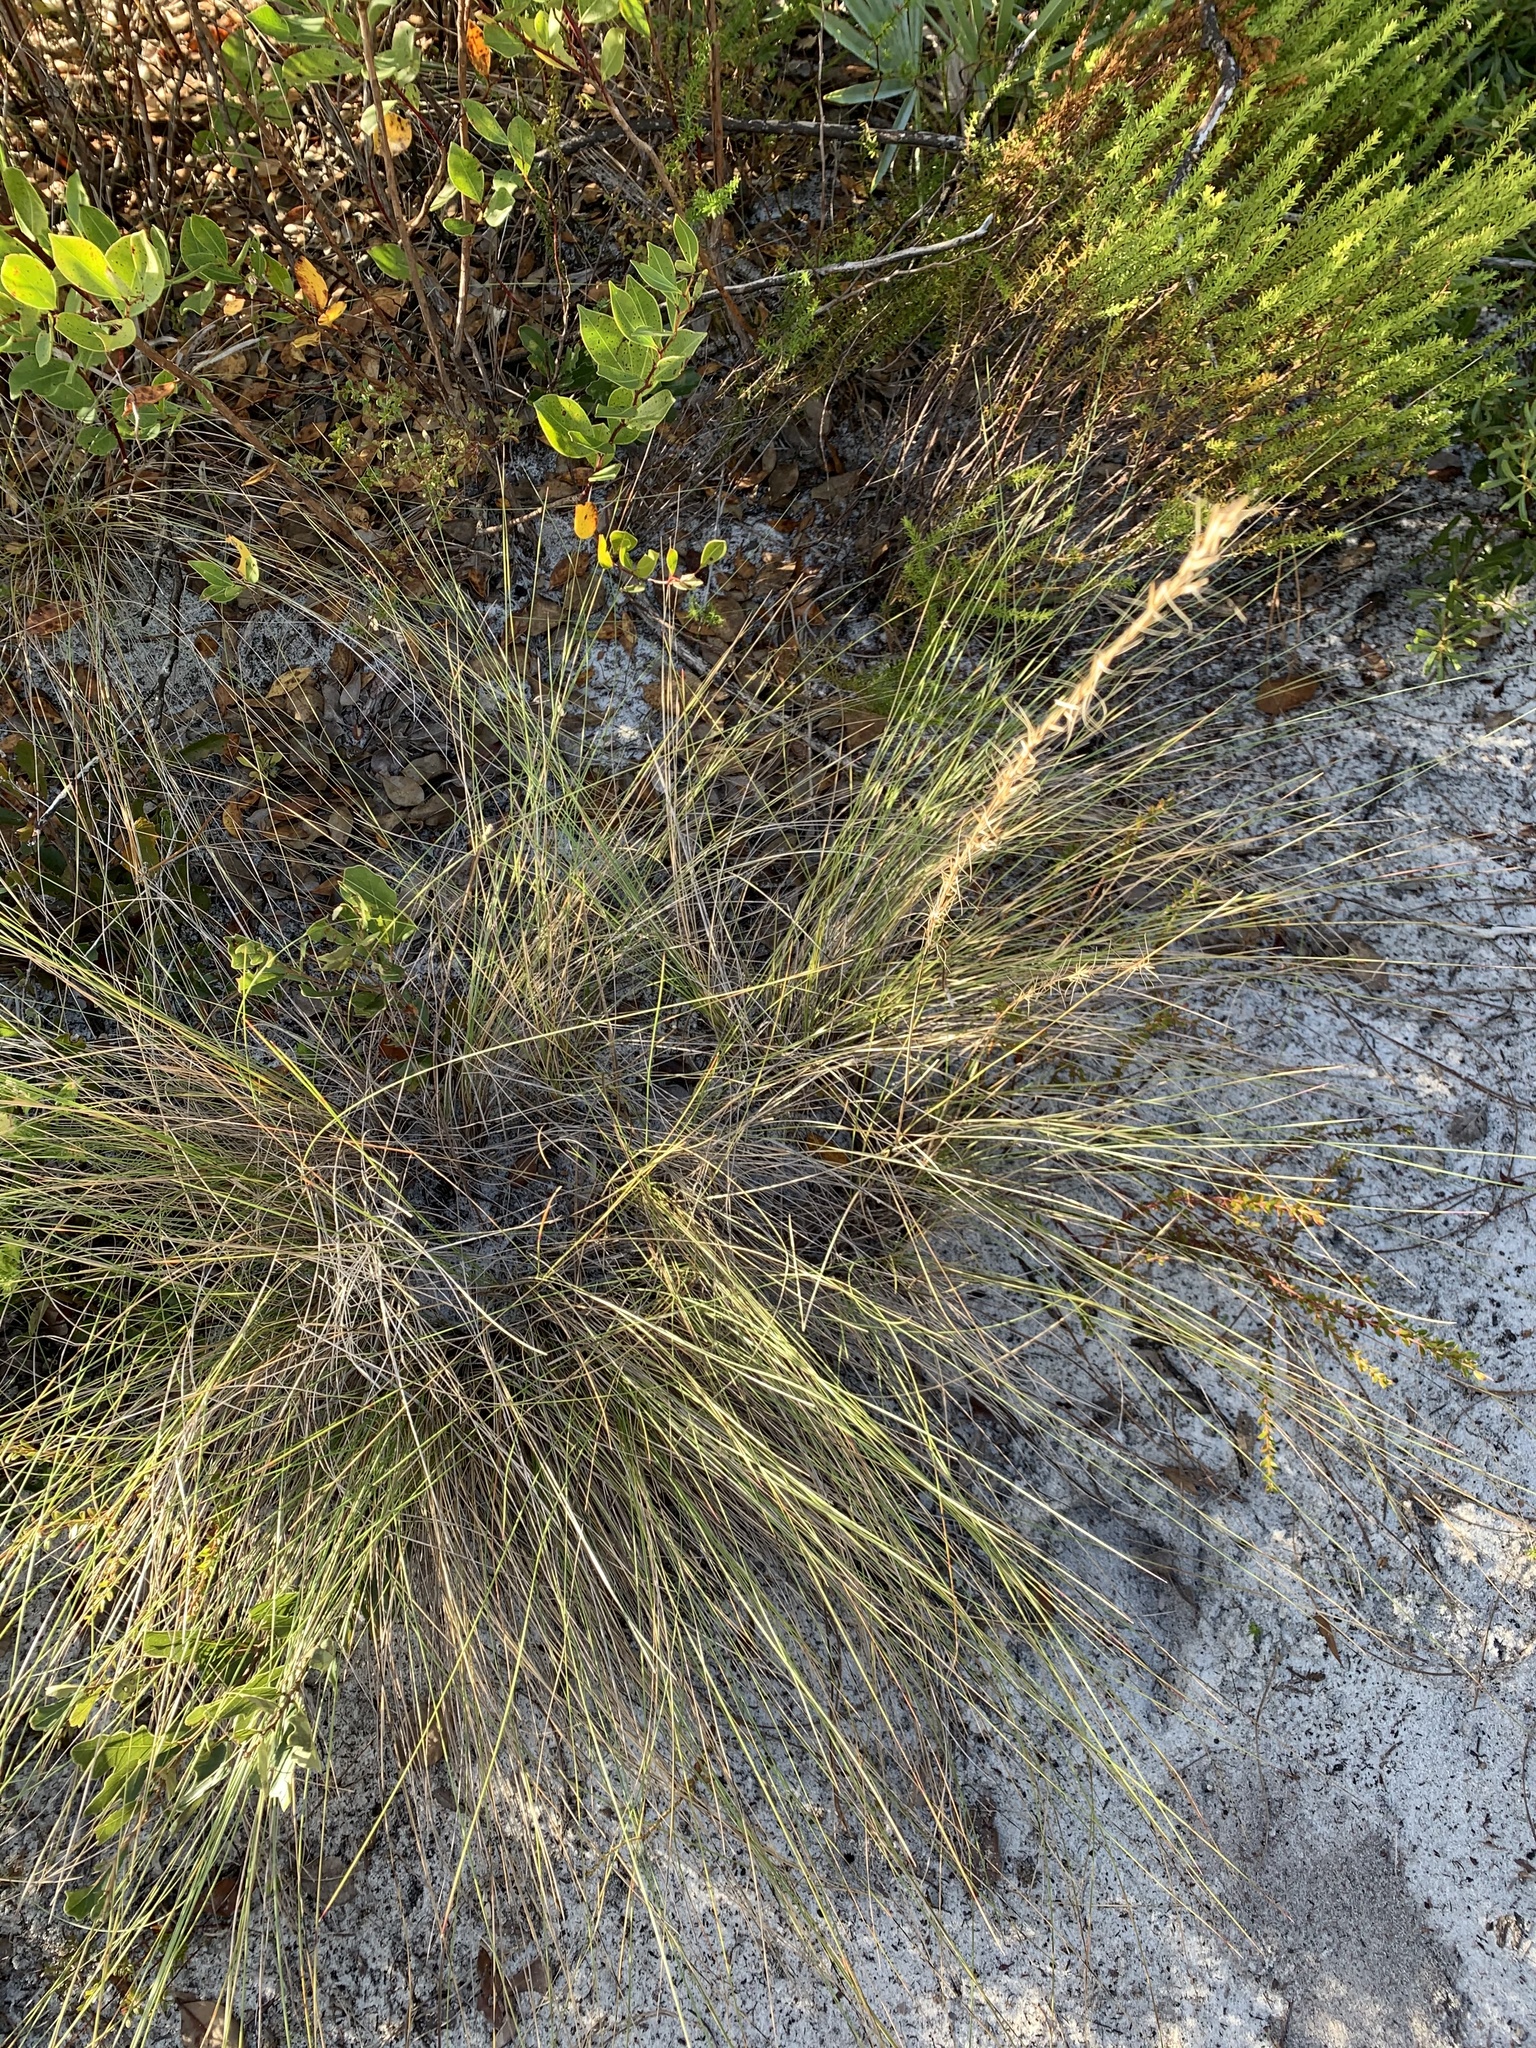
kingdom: Plantae
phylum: Tracheophyta
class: Liliopsida
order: Poales
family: Poaceae
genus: Aristida
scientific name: Aristida beyrichiana
